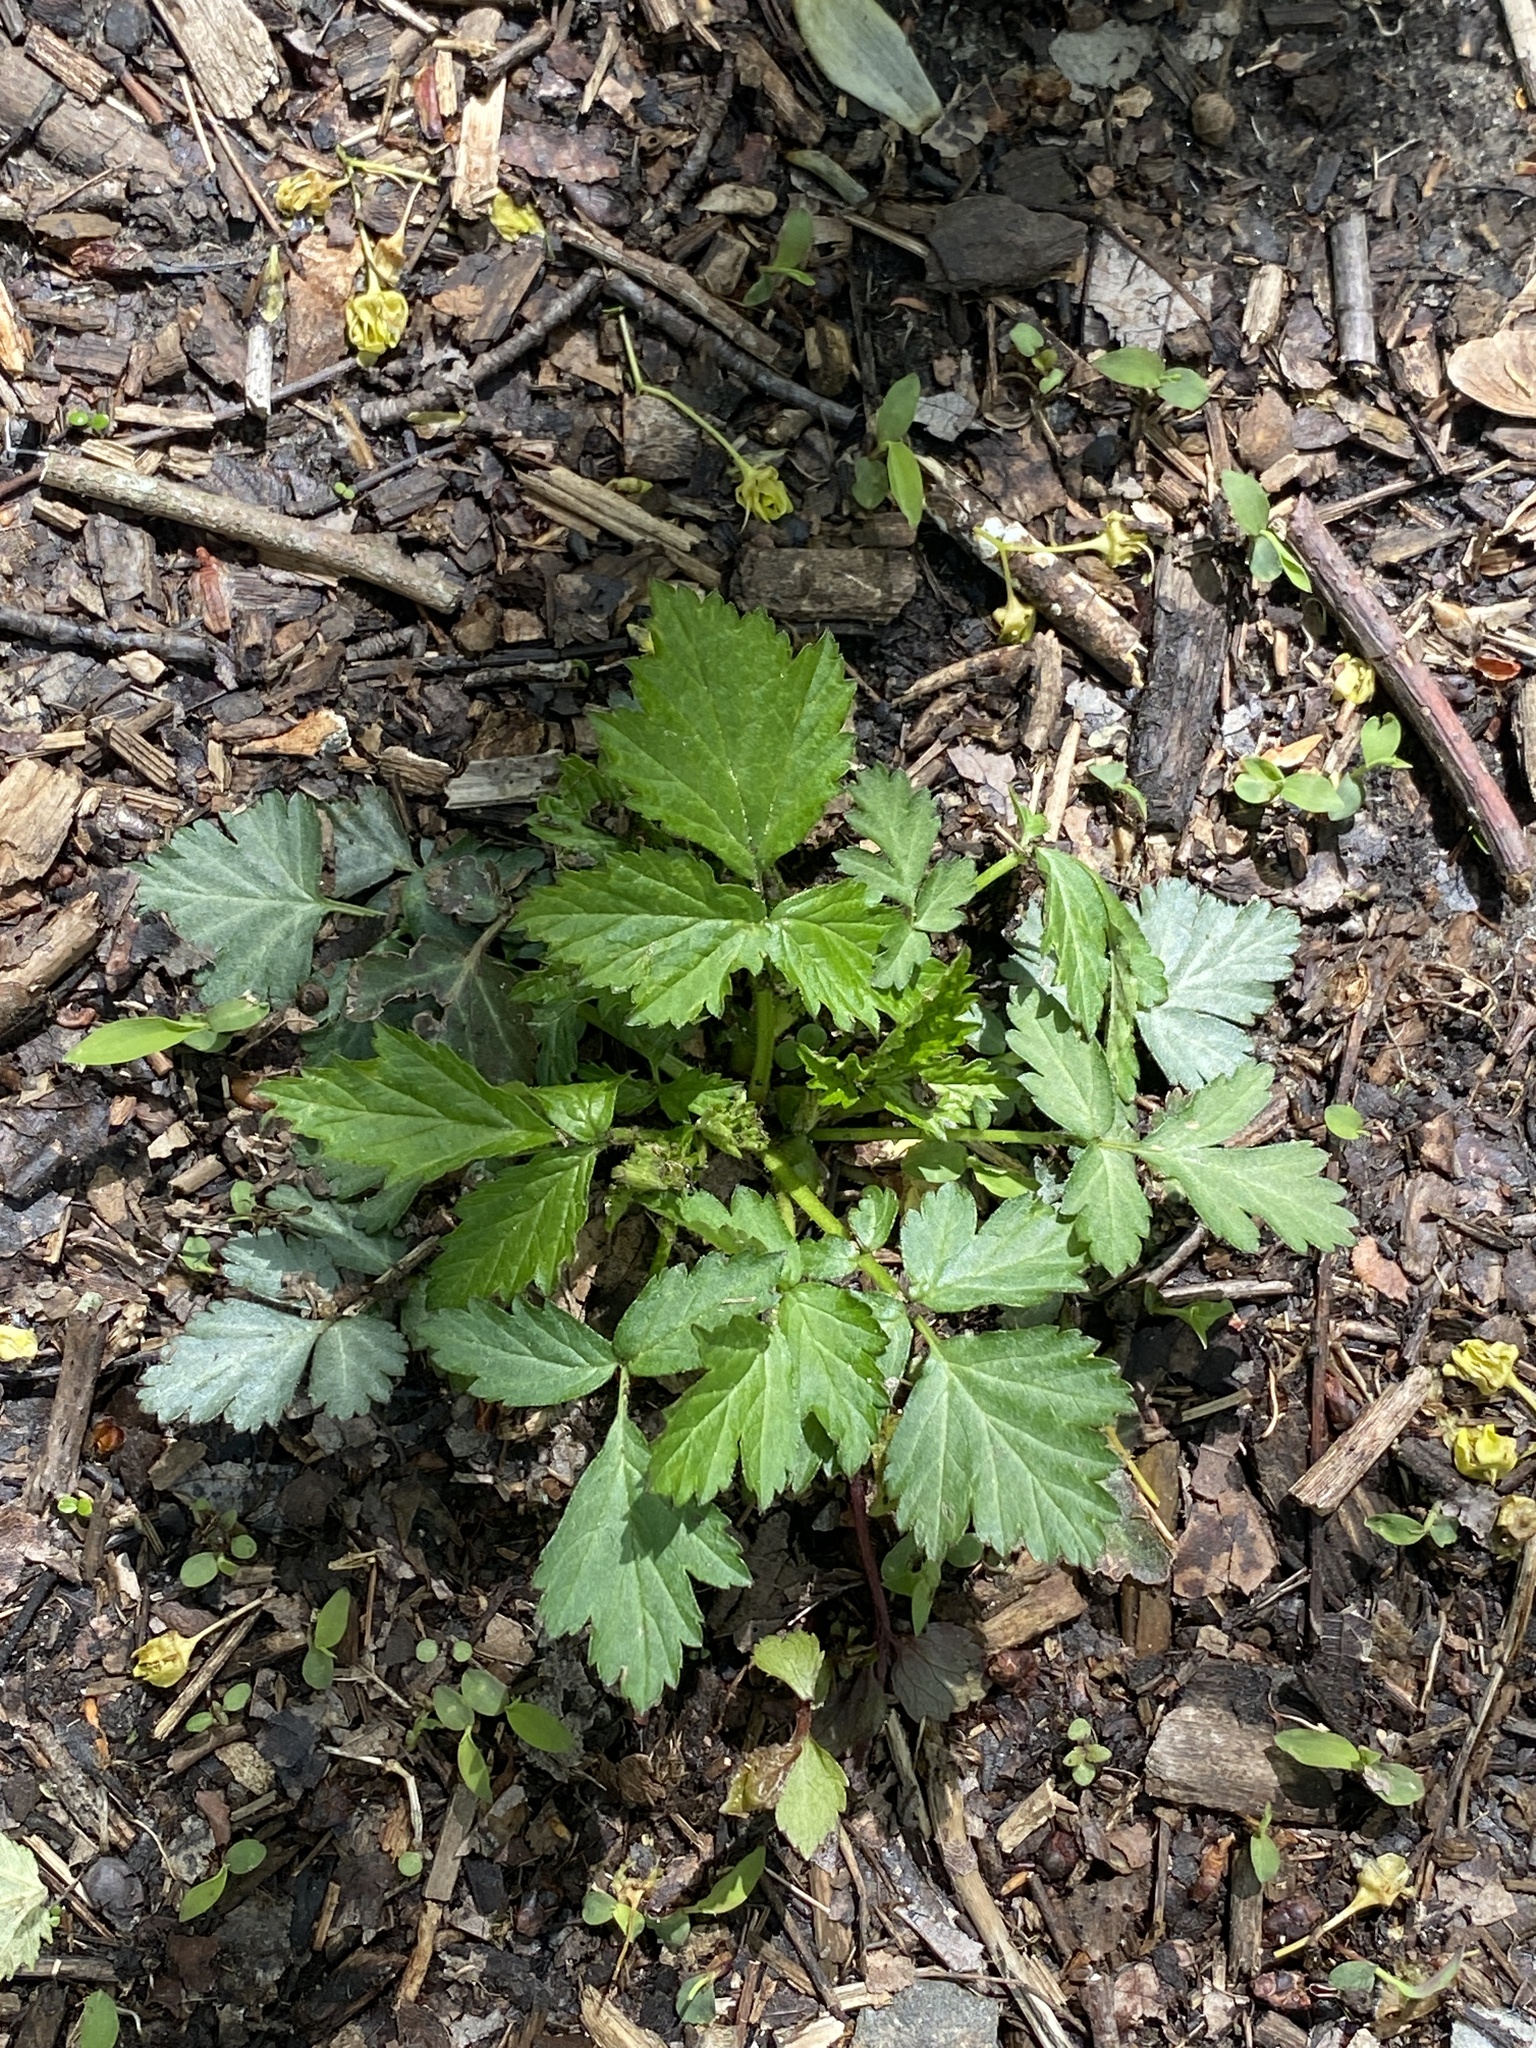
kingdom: Plantae
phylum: Tracheophyta
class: Magnoliopsida
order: Rosales
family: Rosaceae
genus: Geum
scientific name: Geum canadense
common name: White avens
